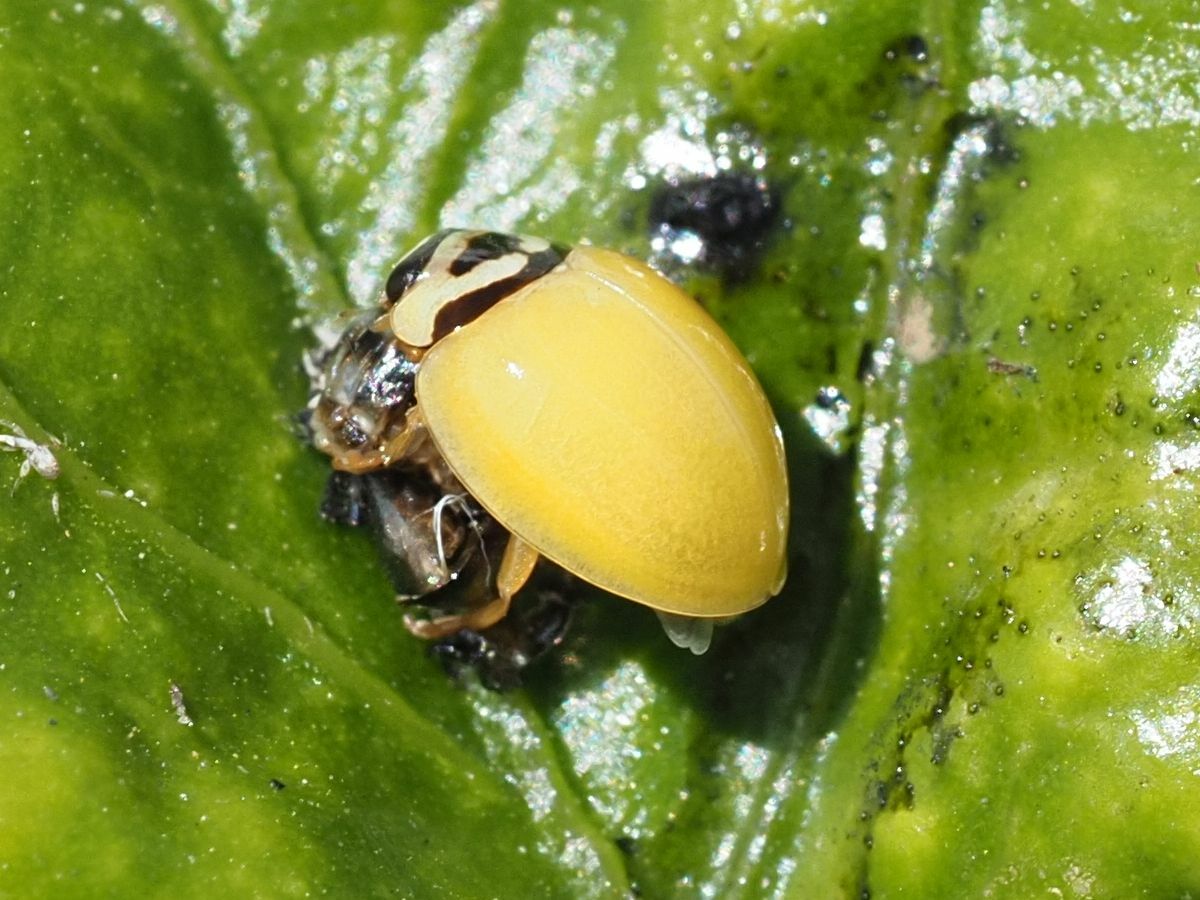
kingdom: Animalia
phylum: Arthropoda
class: Insecta
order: Coleoptera
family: Coccinellidae
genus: Cheilomenes
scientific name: Cheilomenes propinqua
